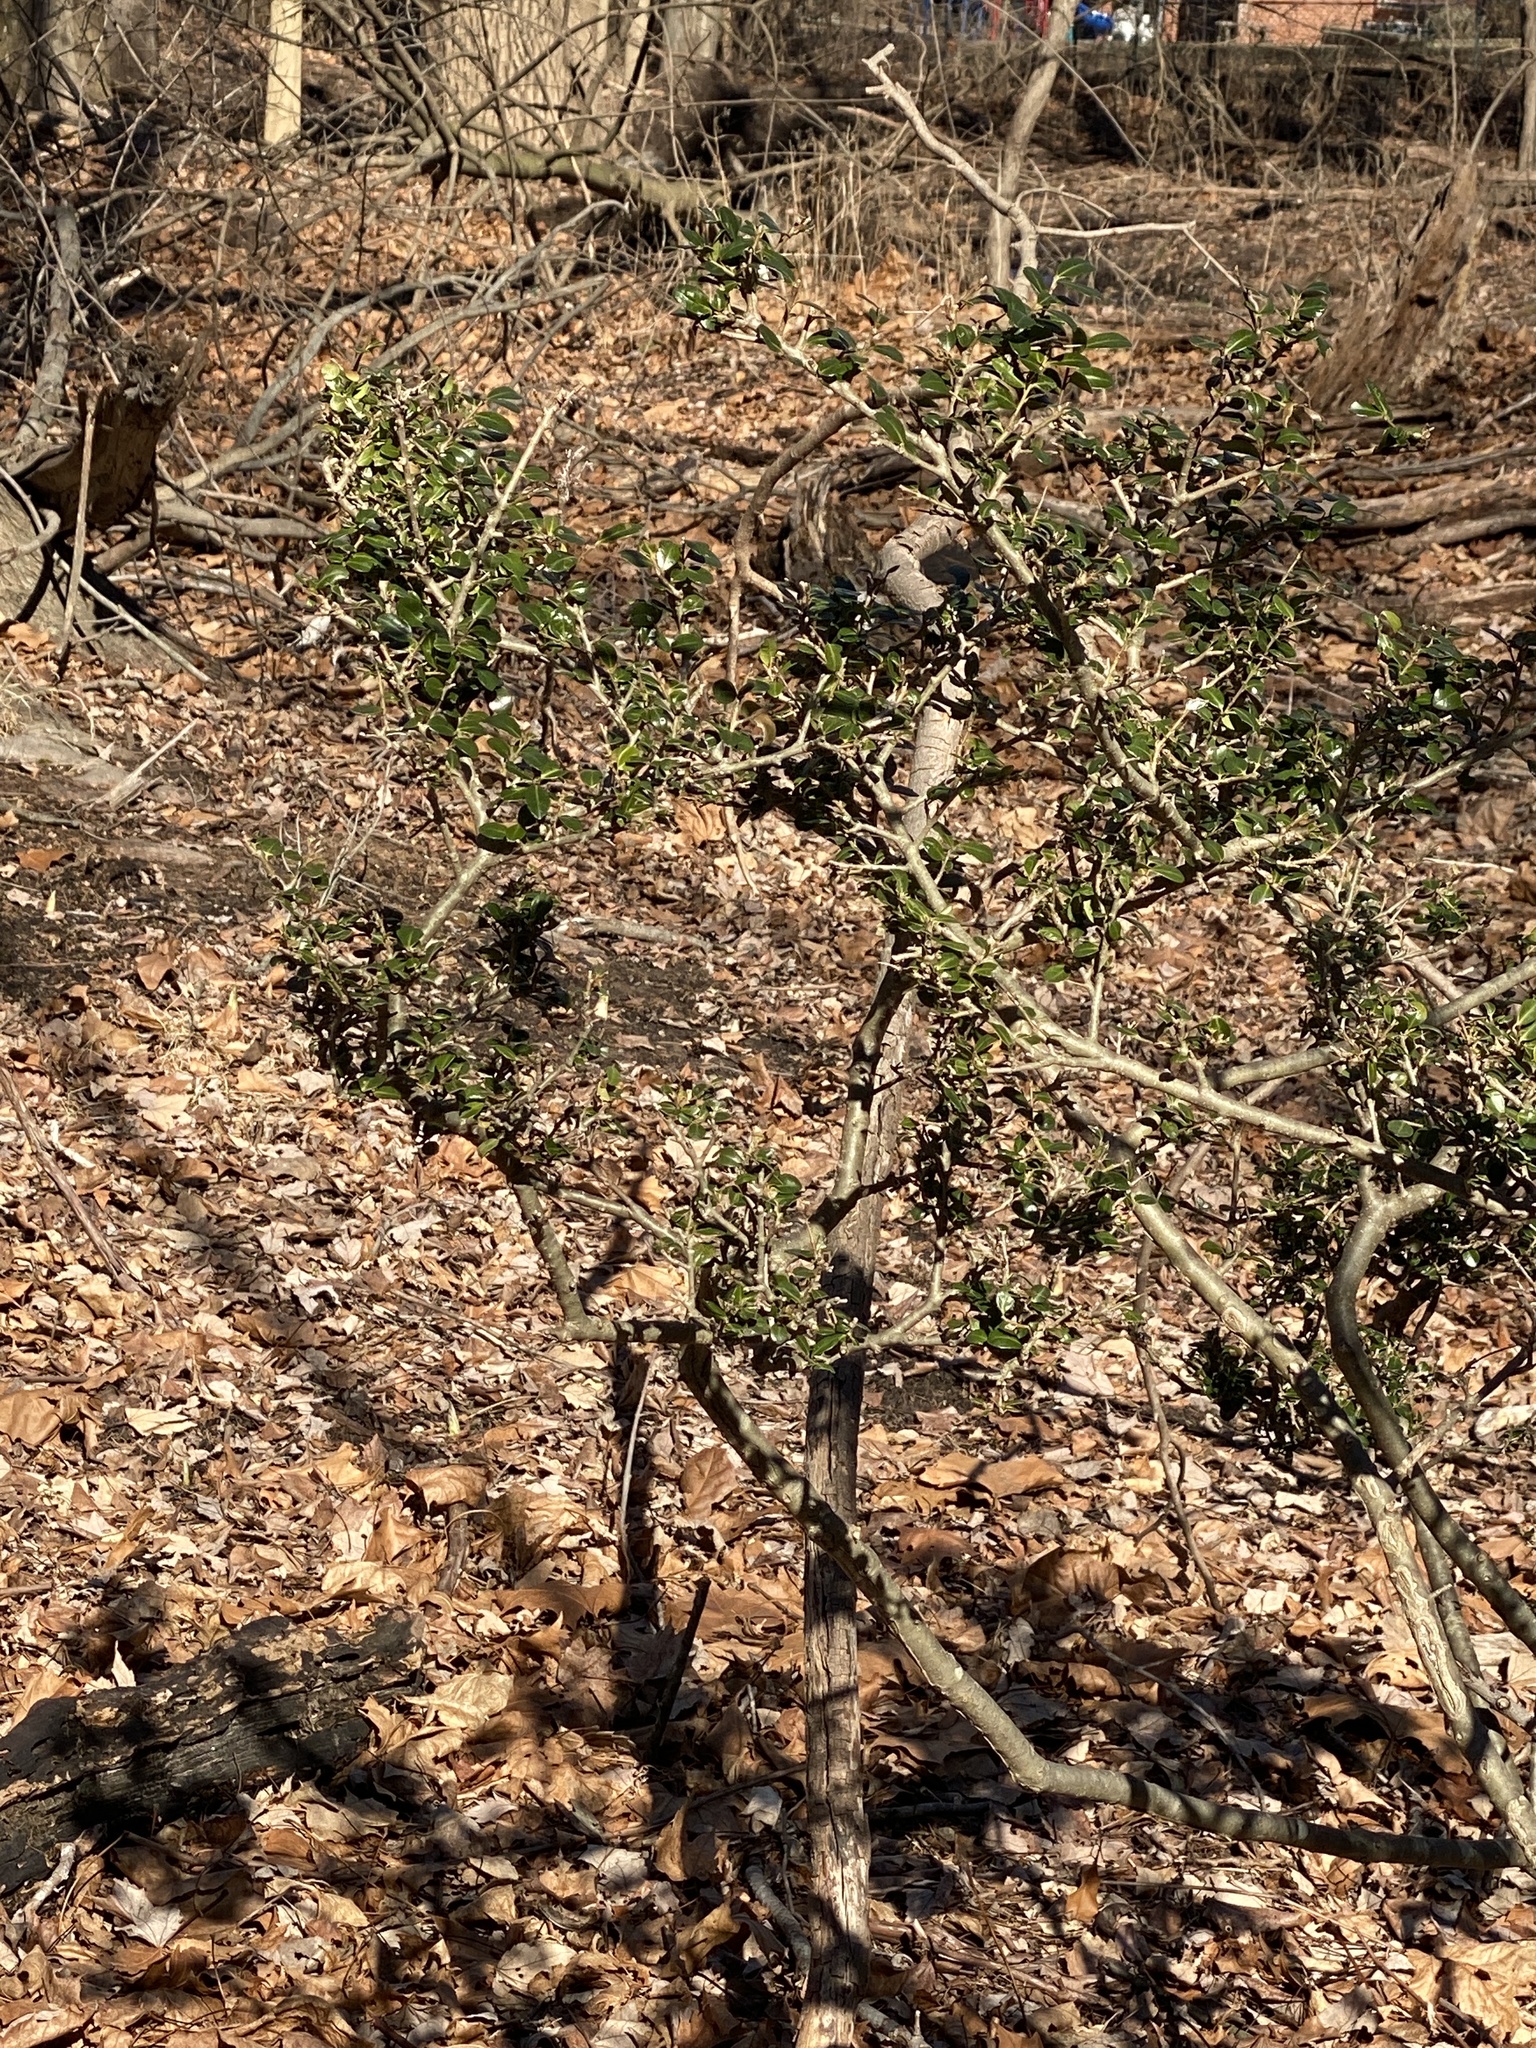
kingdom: Plantae
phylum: Tracheophyta
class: Magnoliopsida
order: Aquifoliales
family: Aquifoliaceae
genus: Ilex
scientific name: Ilex crenata
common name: Japanese holly
